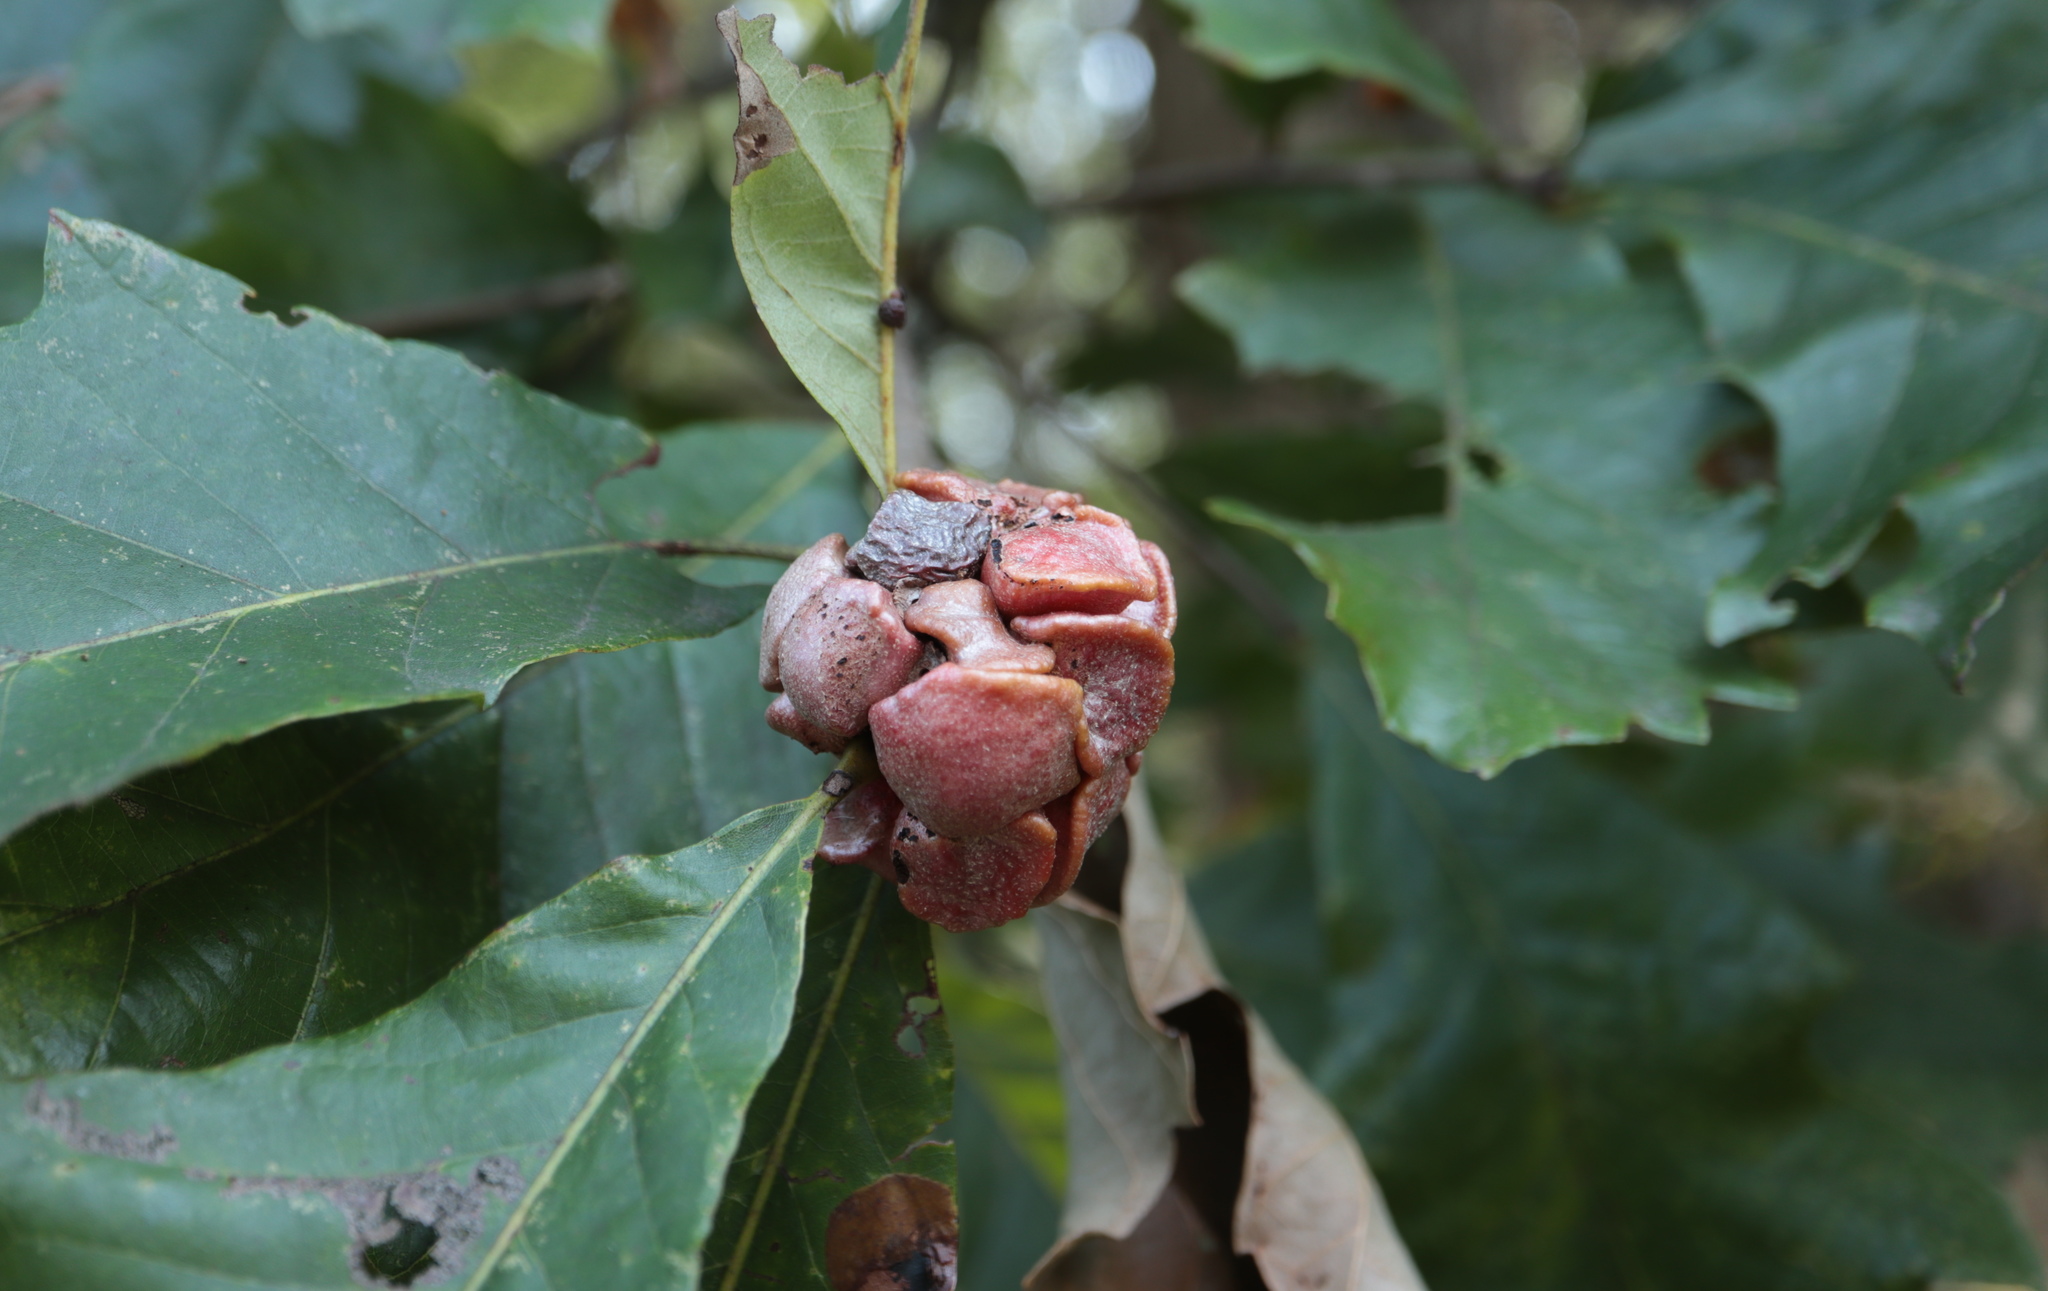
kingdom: Animalia
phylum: Arthropoda
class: Insecta
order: Hymenoptera
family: Cynipidae
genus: Andricus
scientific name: Andricus
